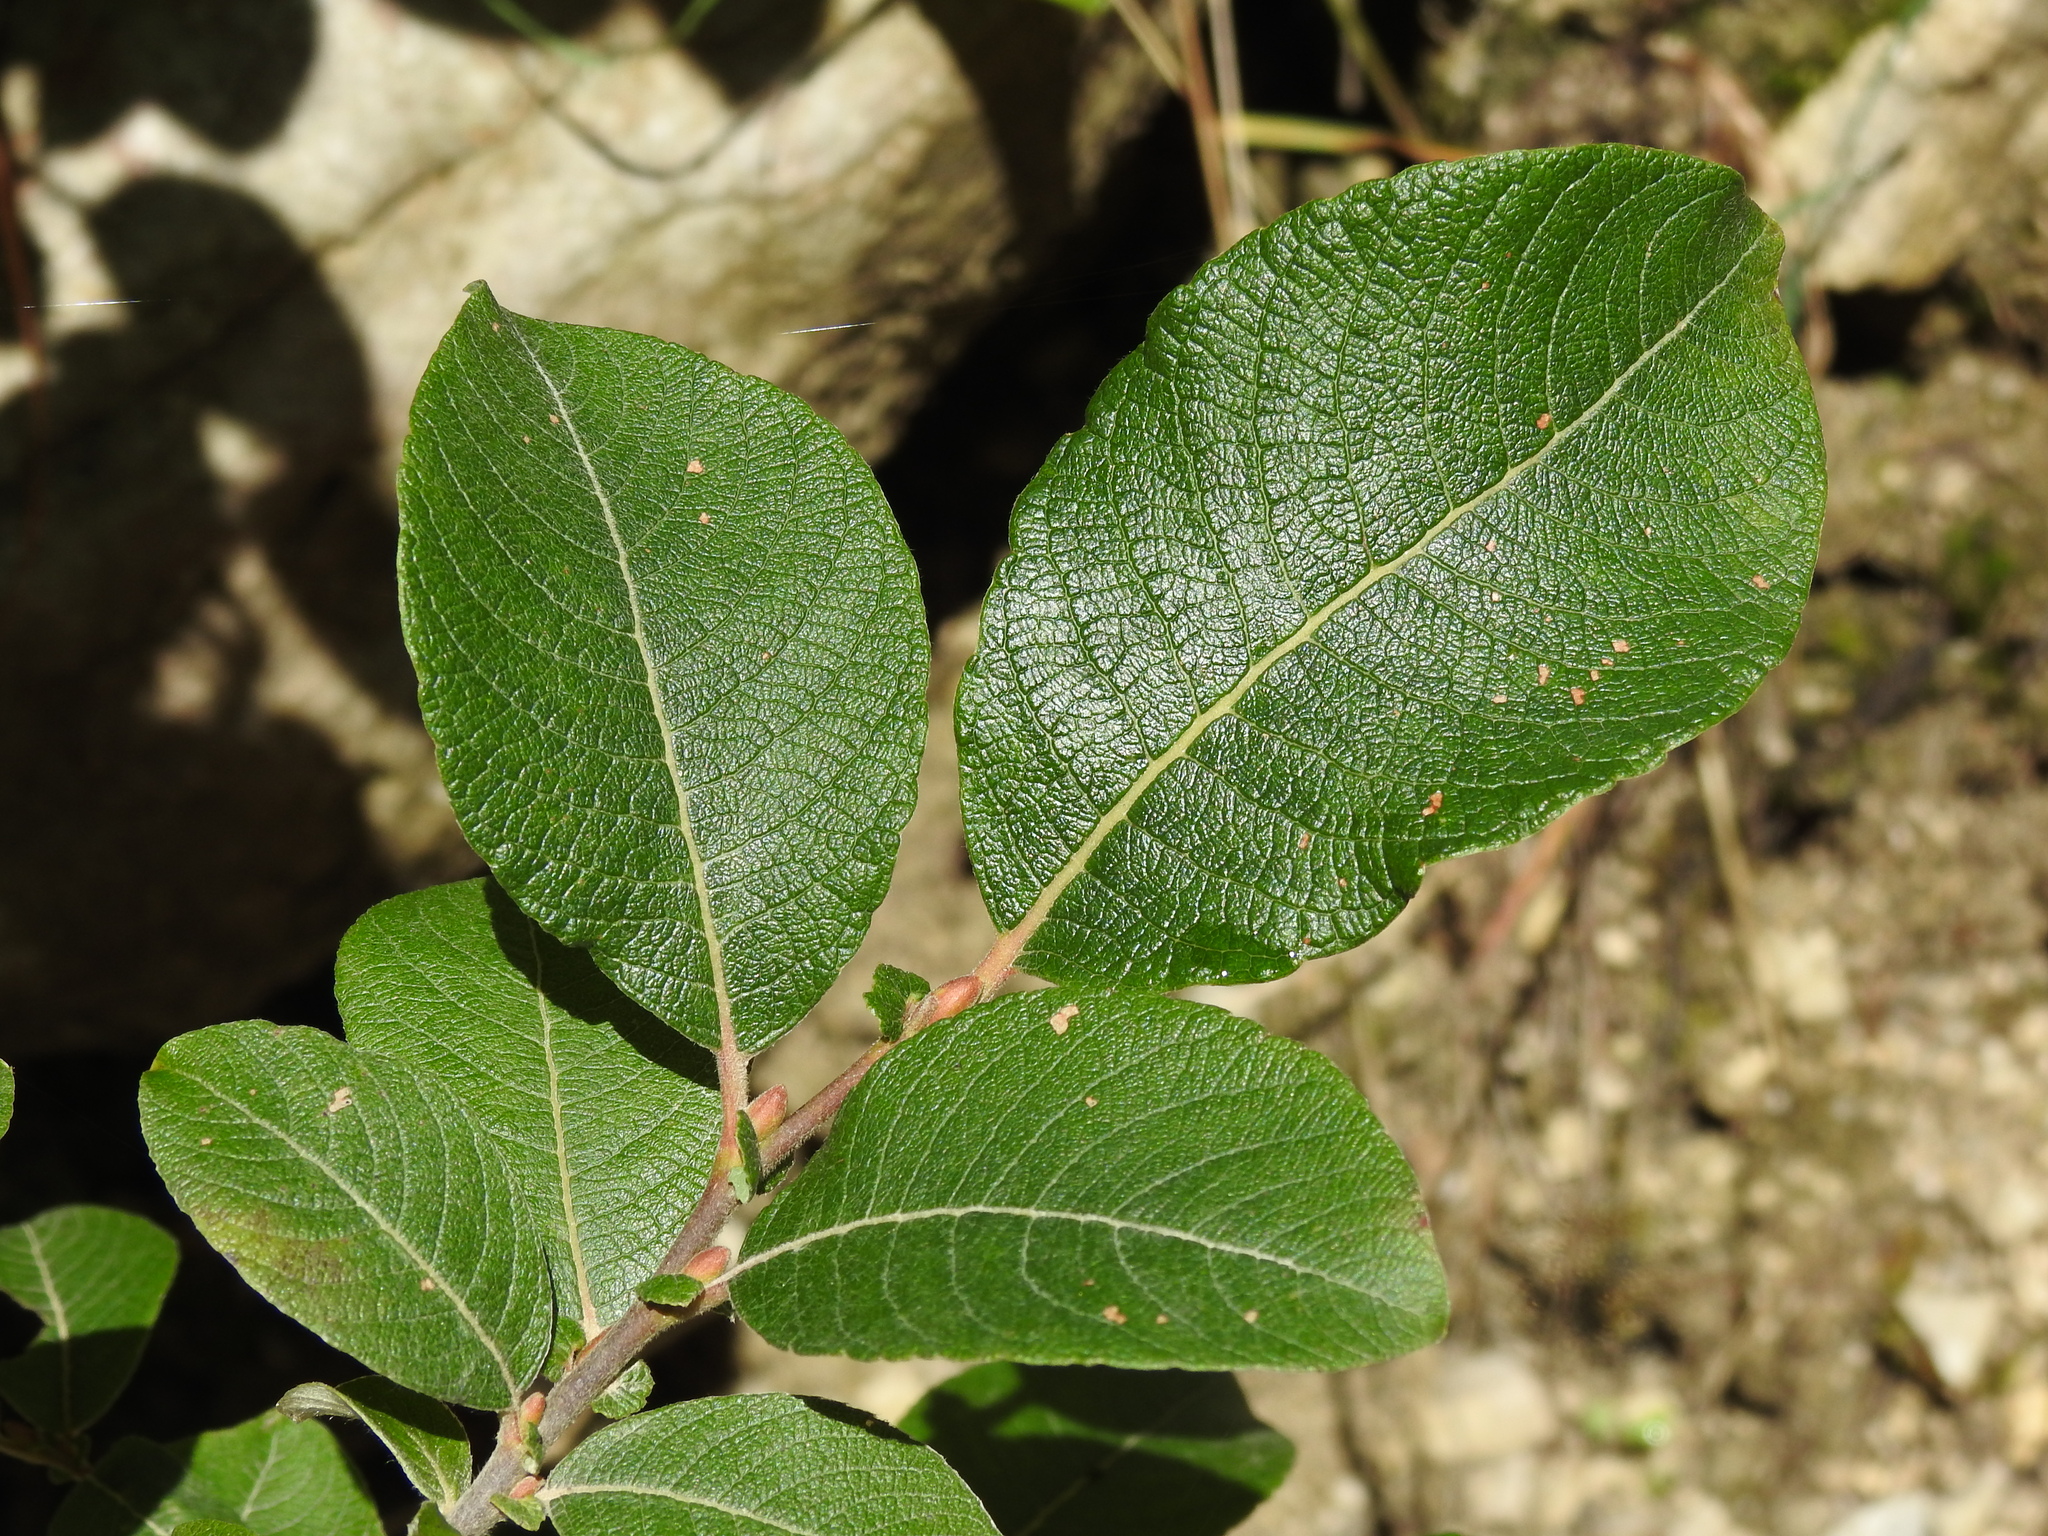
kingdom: Plantae
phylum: Tracheophyta
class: Magnoliopsida
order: Malpighiales
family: Salicaceae
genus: Salix
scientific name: Salix caprea
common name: Goat willow
